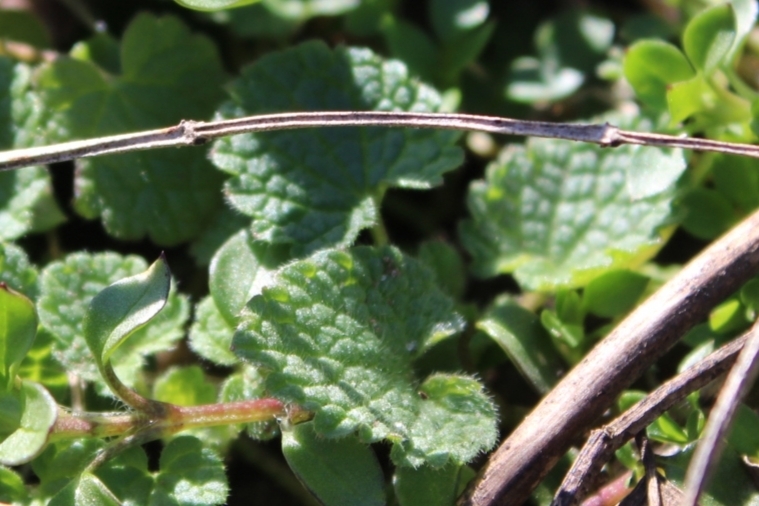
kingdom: Plantae
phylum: Tracheophyta
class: Magnoliopsida
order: Lamiales
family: Lamiaceae
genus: Lamium
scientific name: Lamium purpureum
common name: Red dead-nettle
